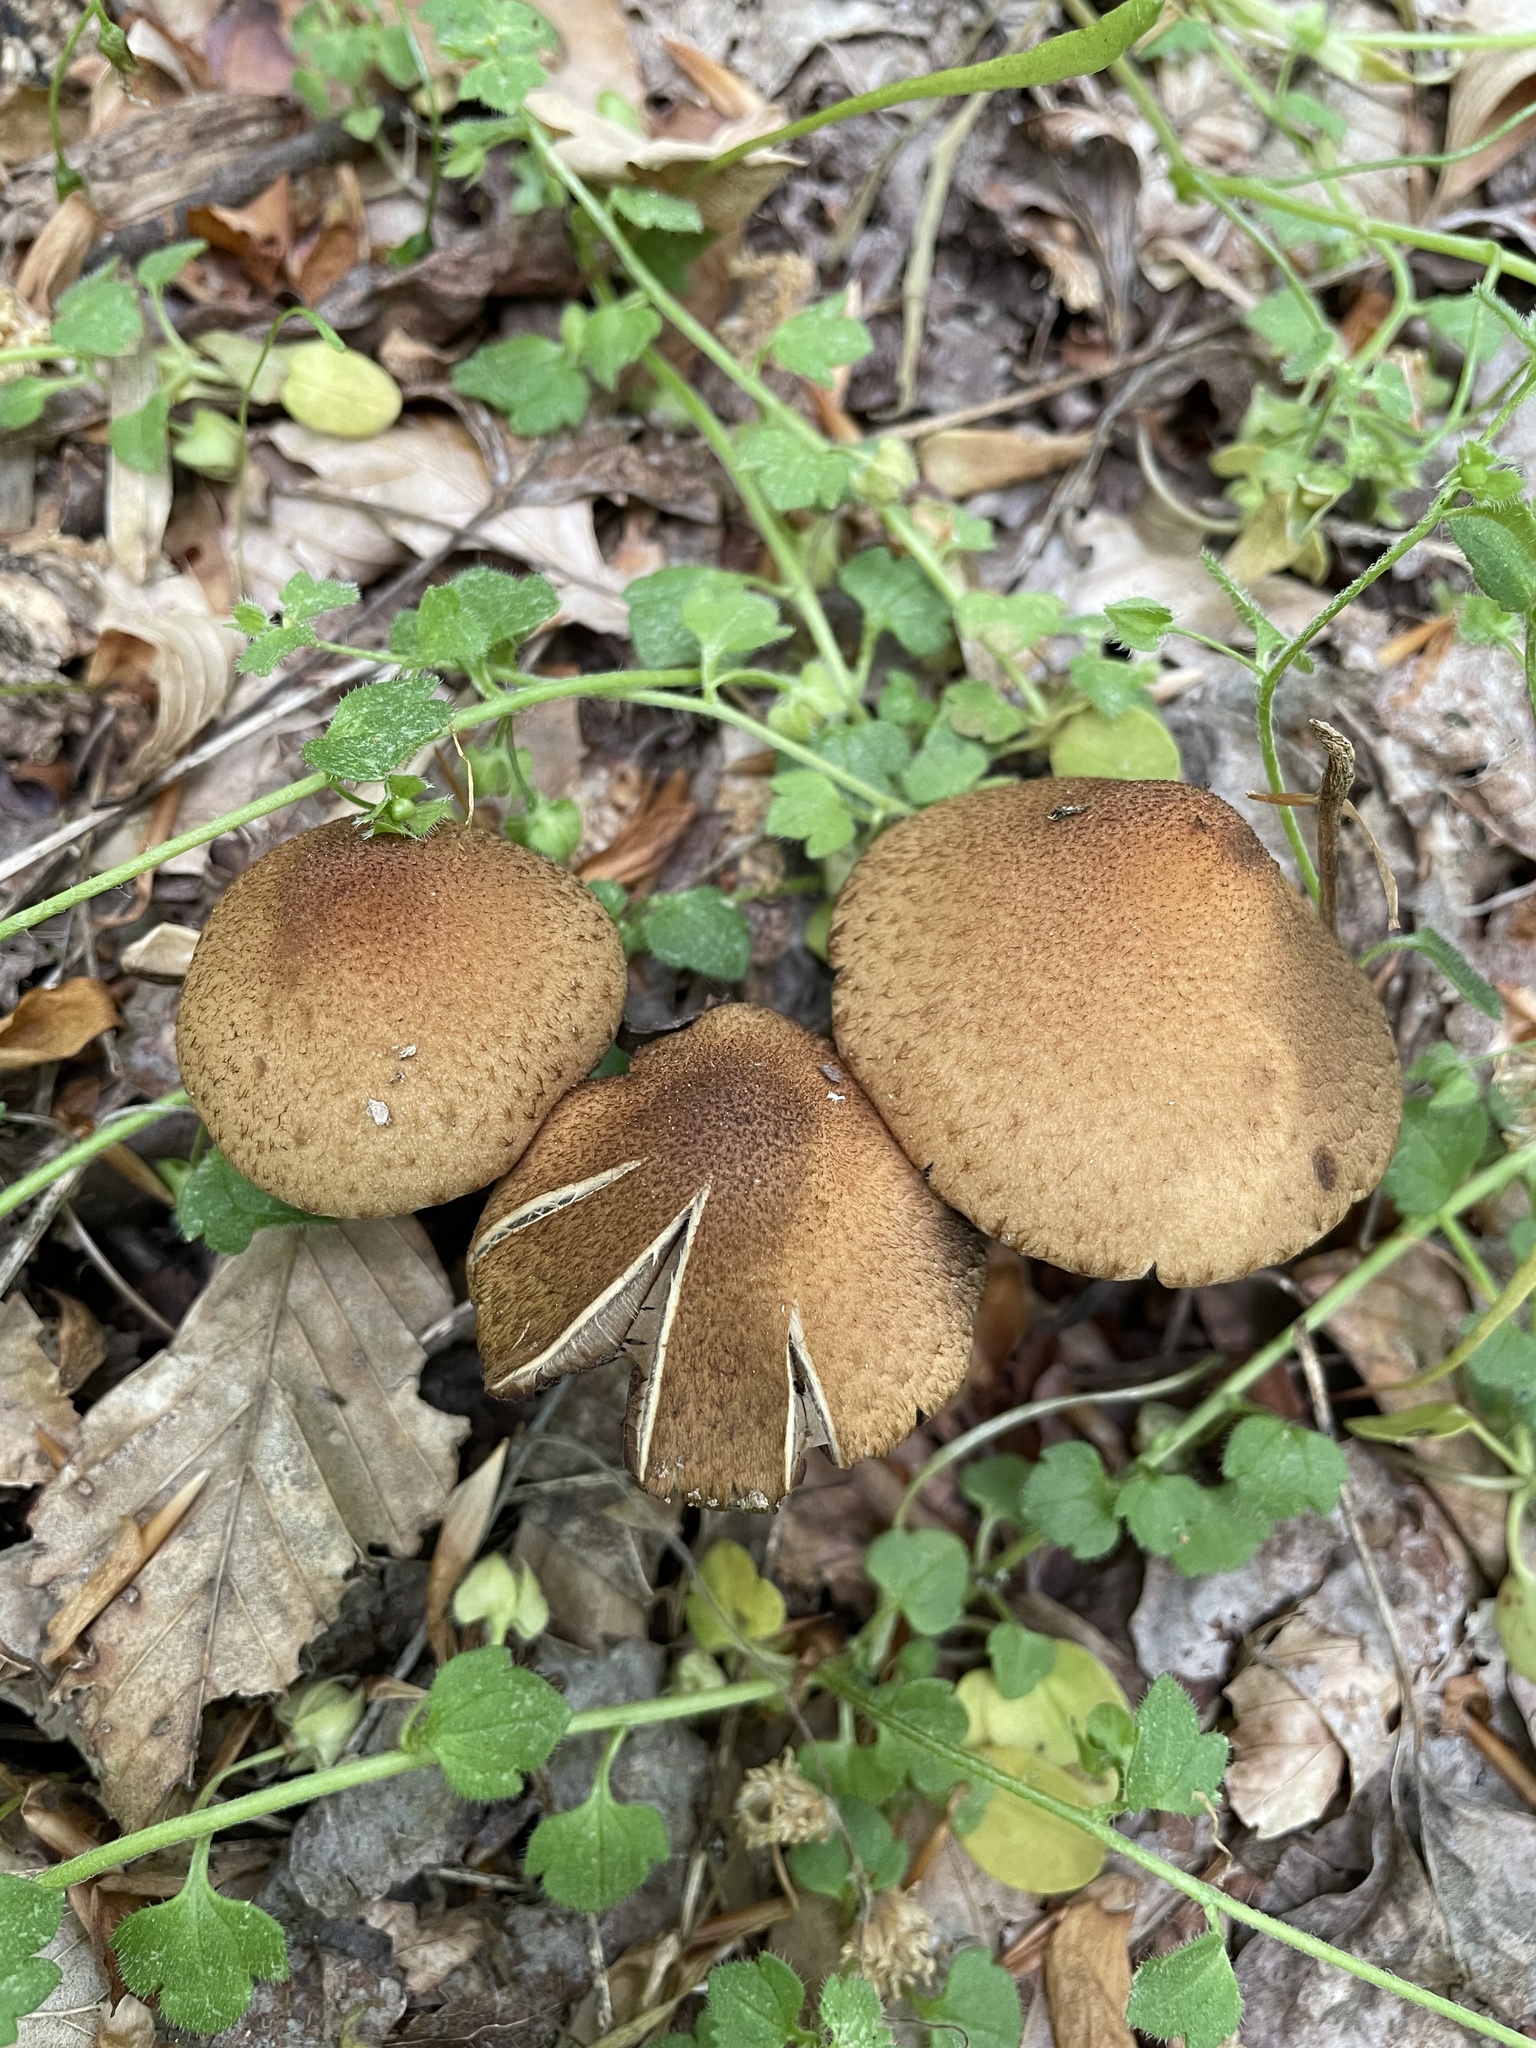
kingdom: Fungi
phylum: Basidiomycota
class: Agaricomycetes
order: Agaricales
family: Psathyrellaceae
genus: Lacrymaria
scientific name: Lacrymaria lacrymabunda
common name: Weeping widow
